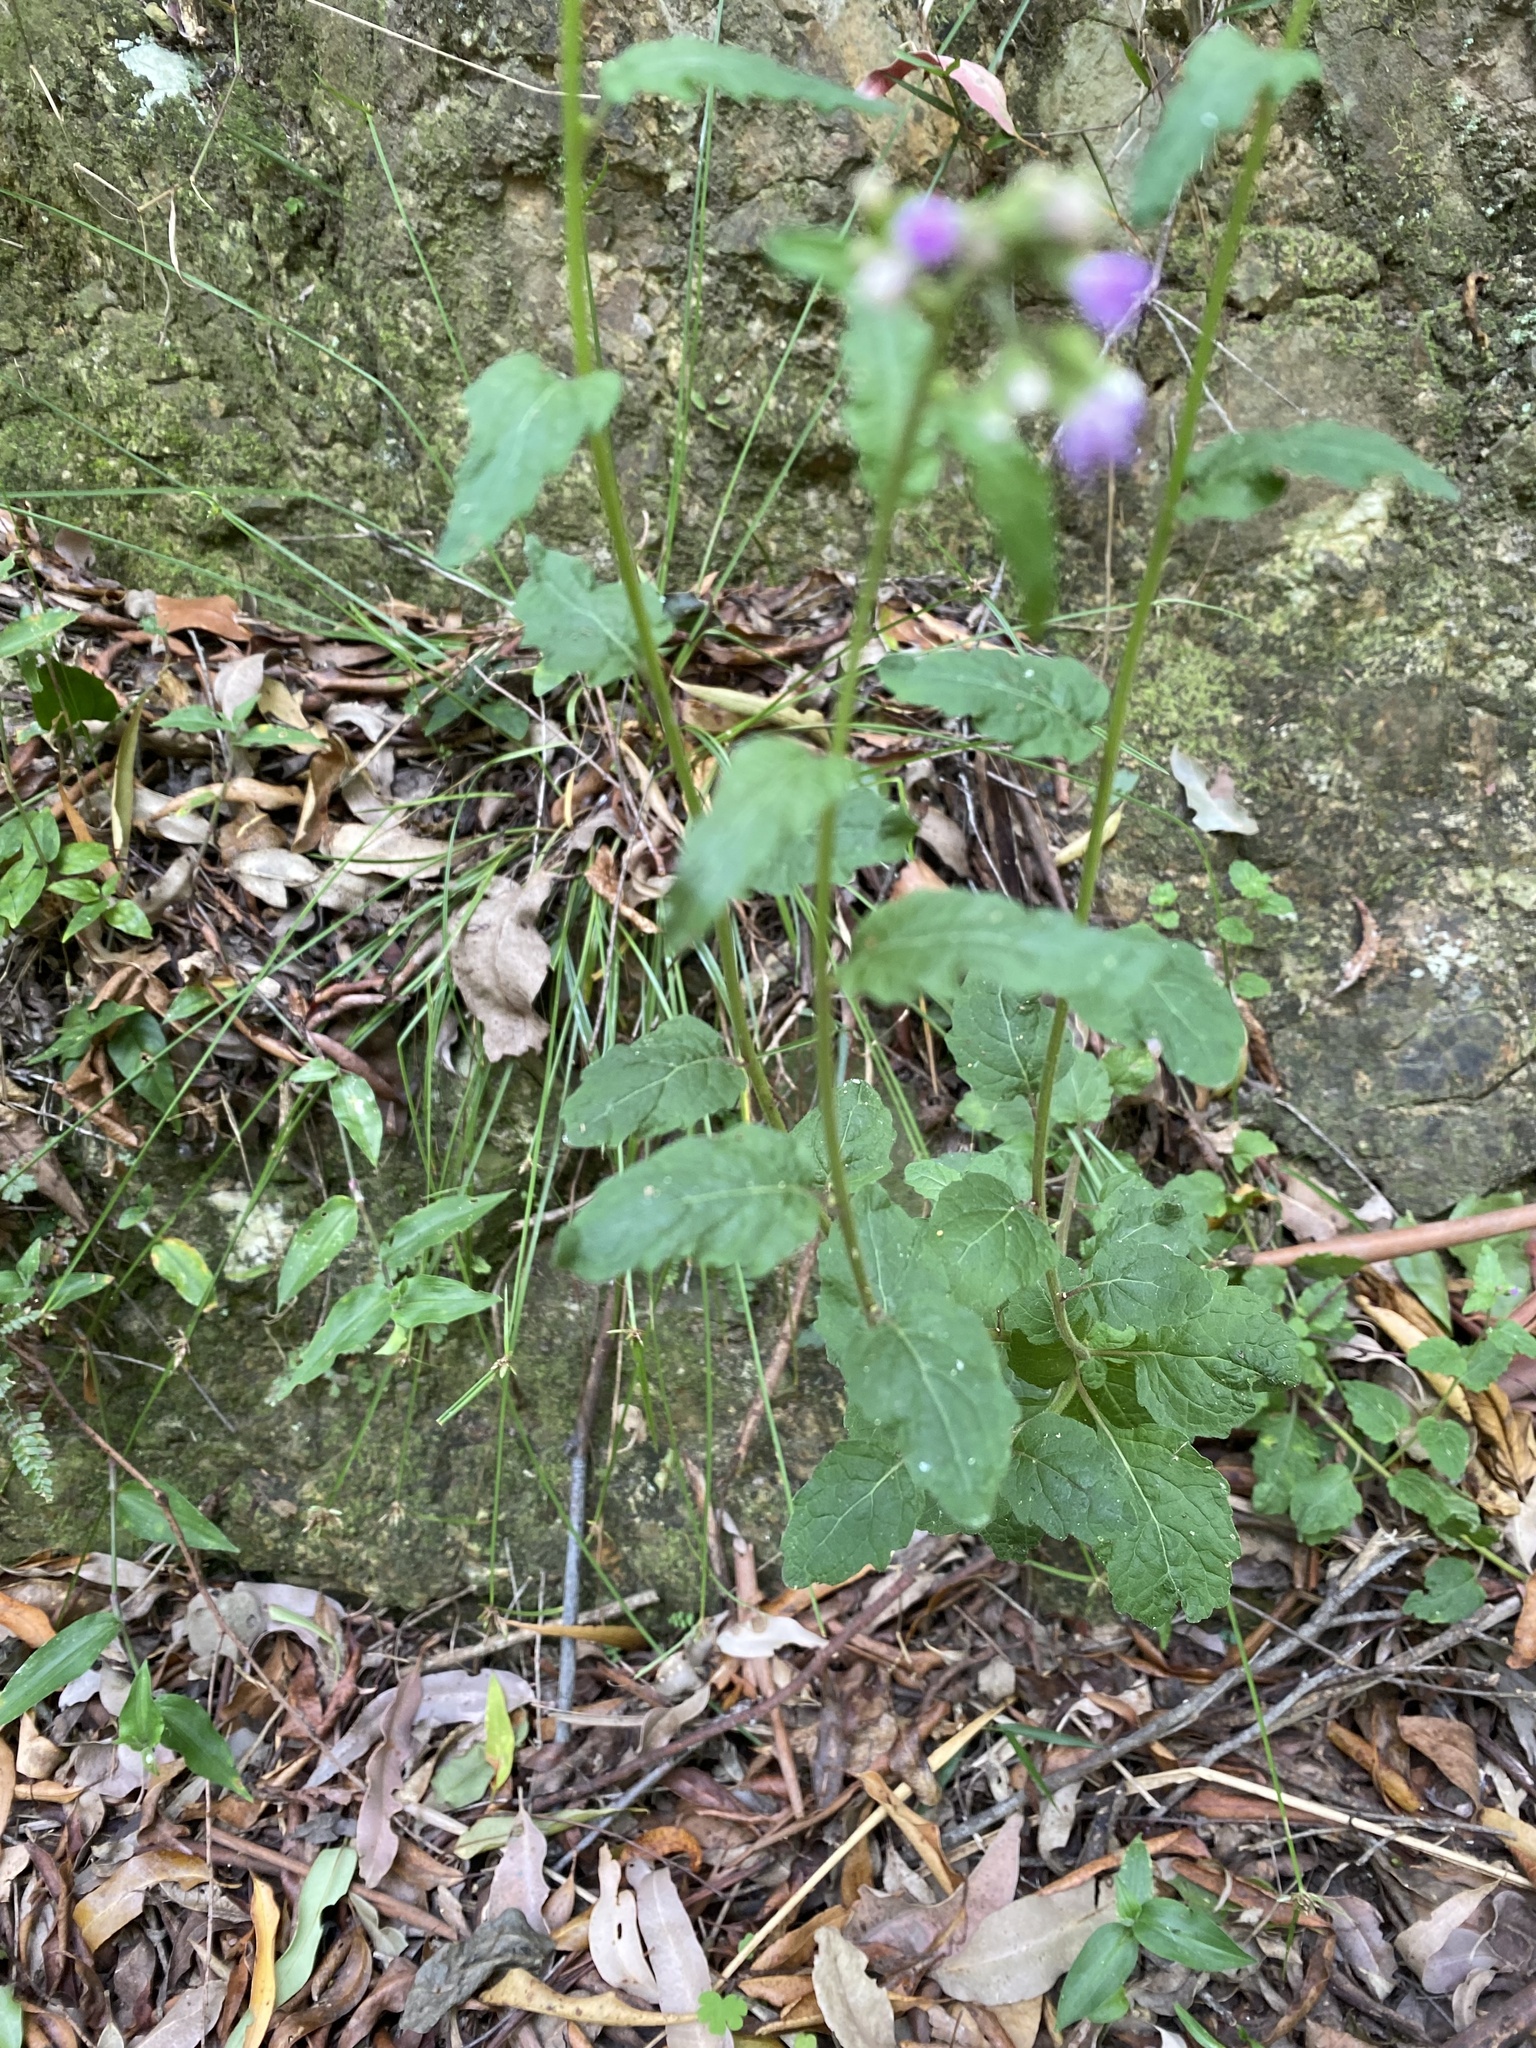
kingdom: Plantae
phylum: Tracheophyta
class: Magnoliopsida
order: Asterales
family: Asteraceae
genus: Cyanthillium
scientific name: Cyanthillium cinereum
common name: Little ironweed
